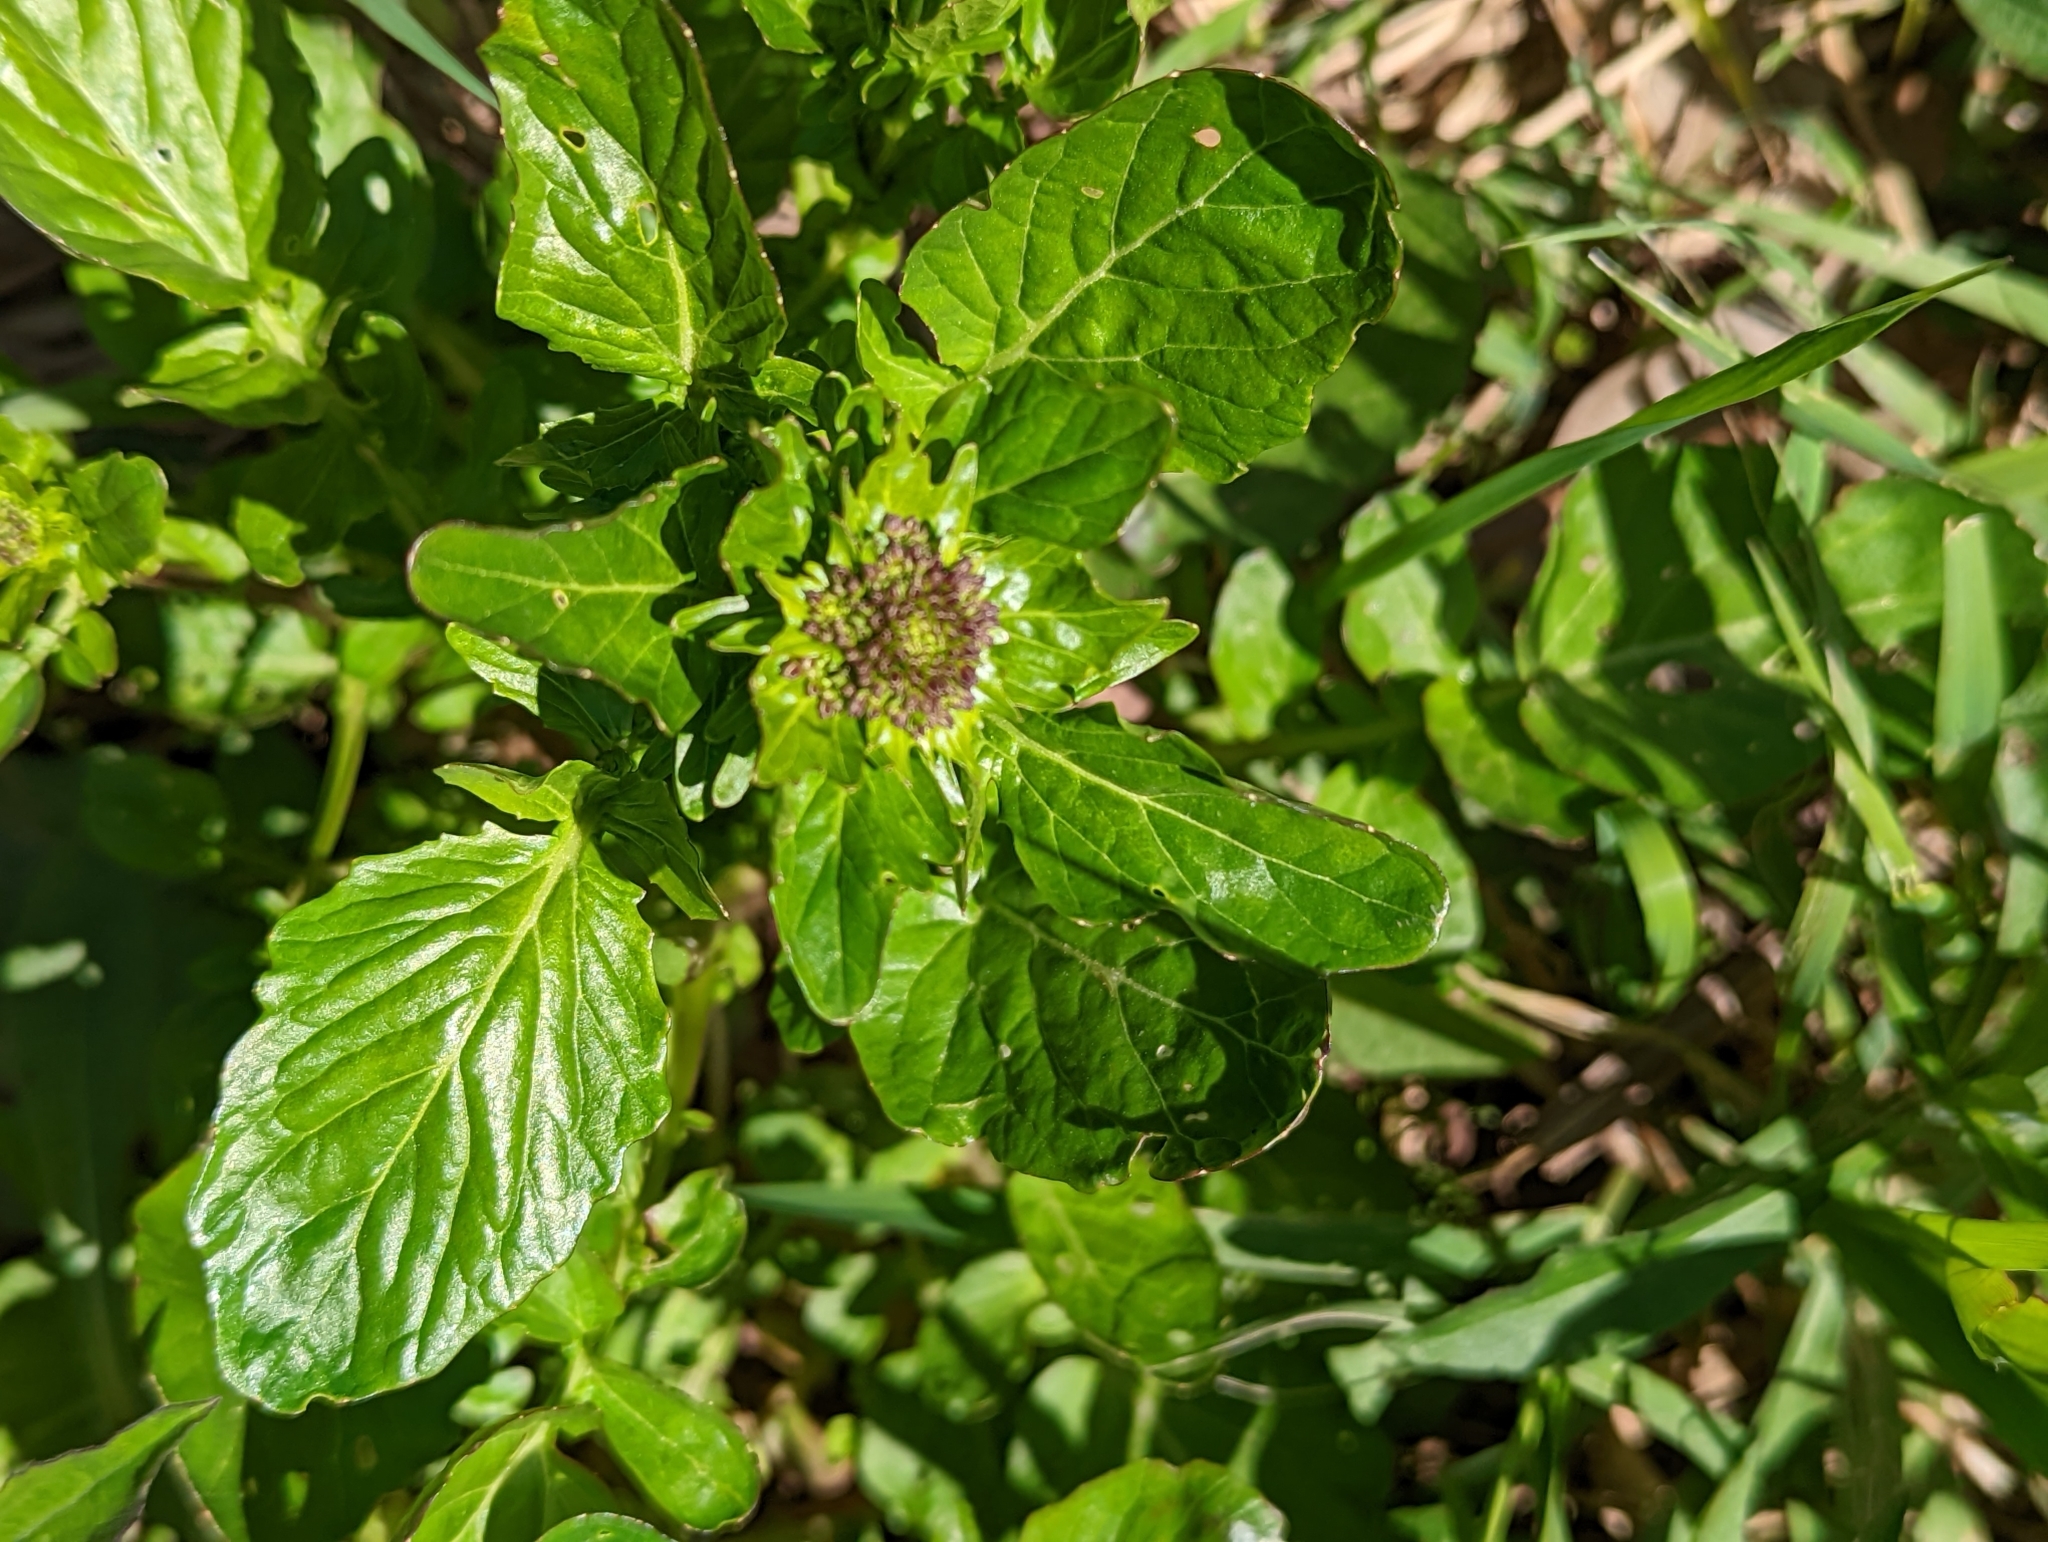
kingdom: Plantae
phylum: Tracheophyta
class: Magnoliopsida
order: Brassicales
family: Brassicaceae
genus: Barbarea
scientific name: Barbarea vulgaris
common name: Cressy-greens
